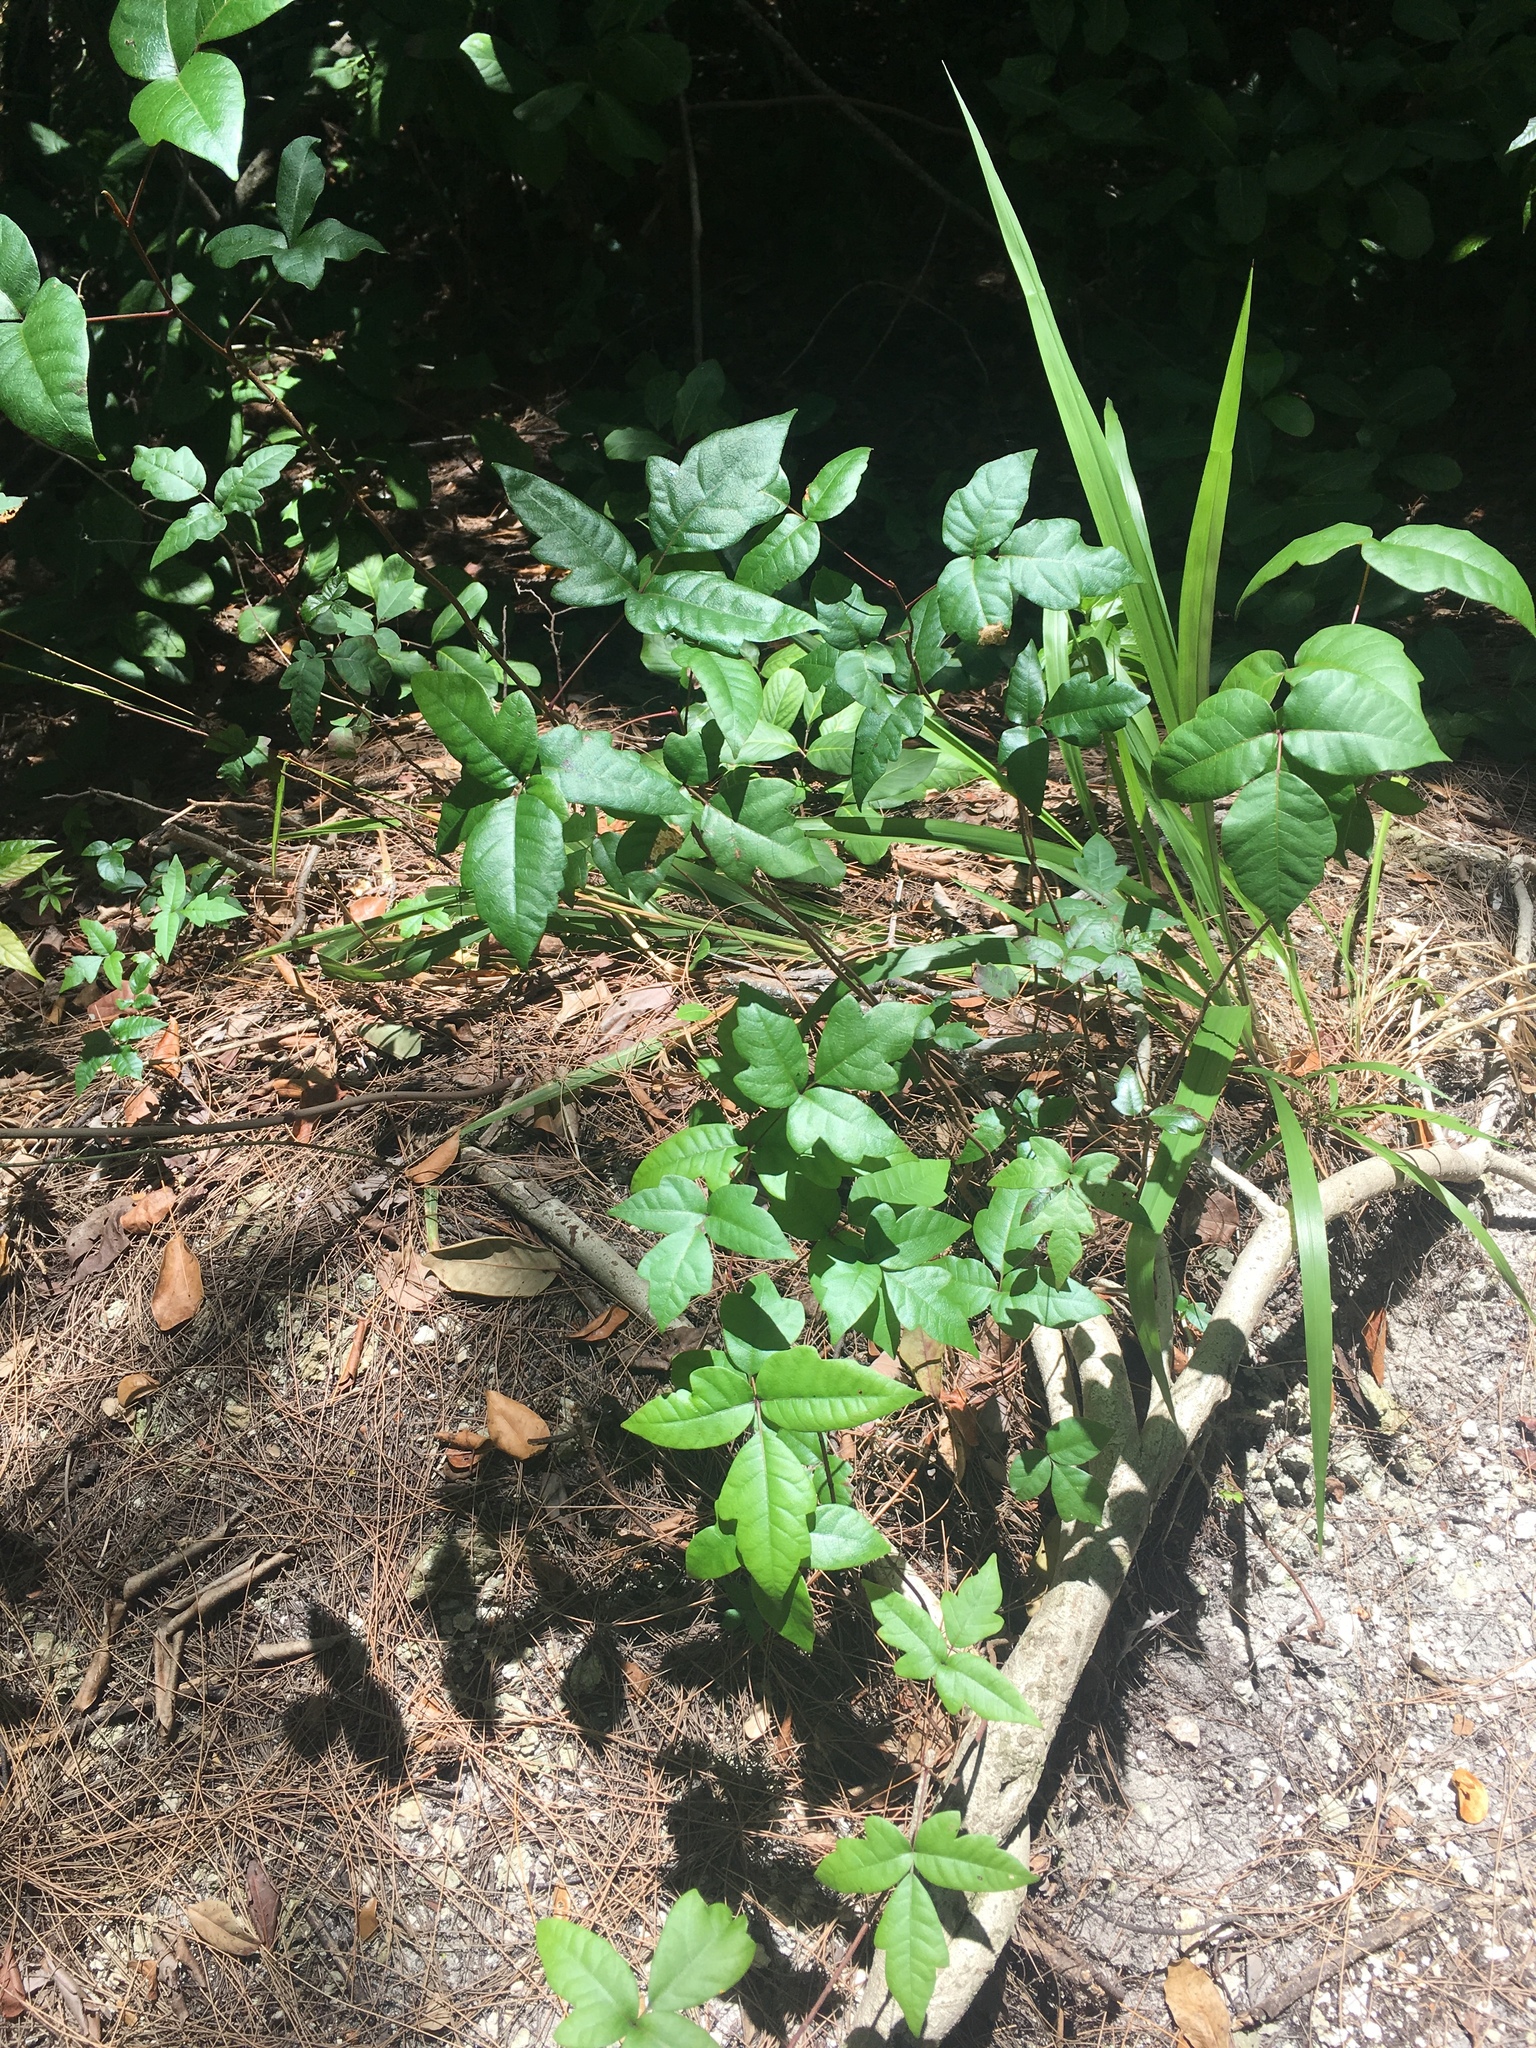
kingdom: Plantae
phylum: Tracheophyta
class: Magnoliopsida
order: Sapindales
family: Anacardiaceae
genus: Toxicodendron
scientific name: Toxicodendron radicans
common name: Poison ivy
